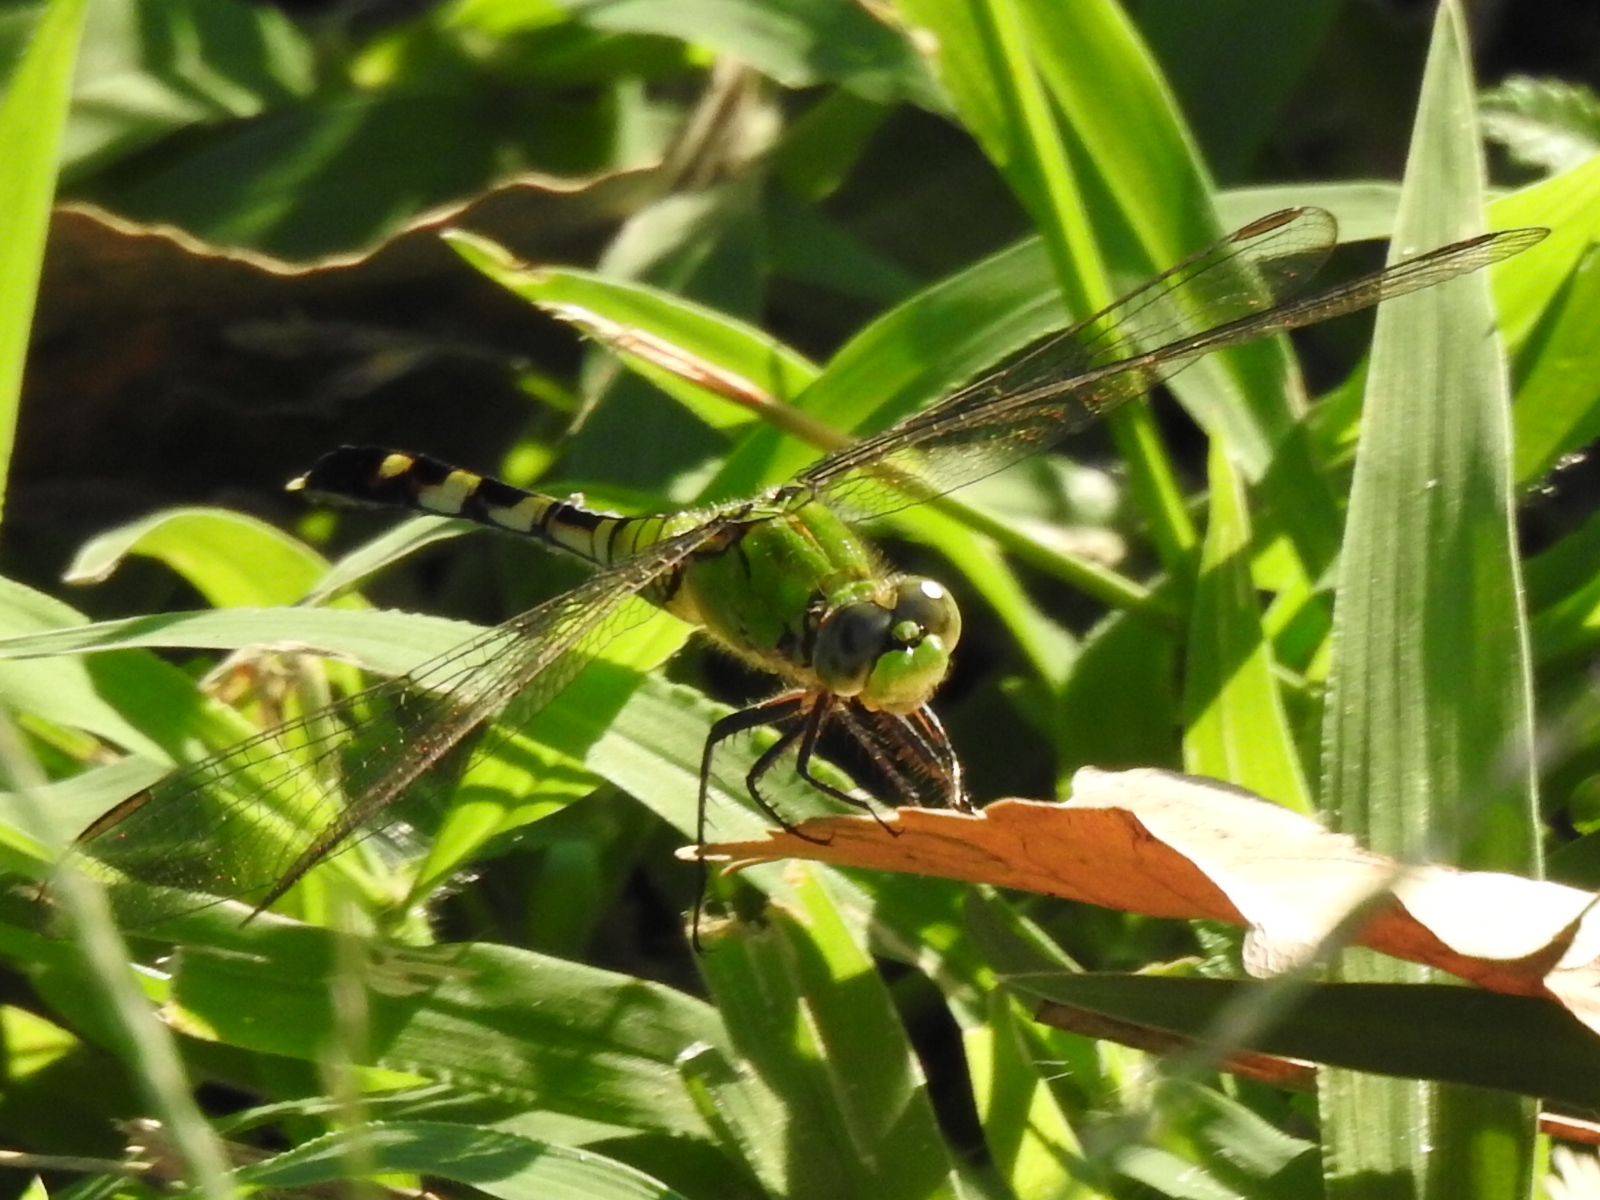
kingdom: Animalia
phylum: Arthropoda
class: Insecta
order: Odonata
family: Libellulidae
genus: Erythemis
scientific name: Erythemis simplicicollis
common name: Eastern pondhawk
